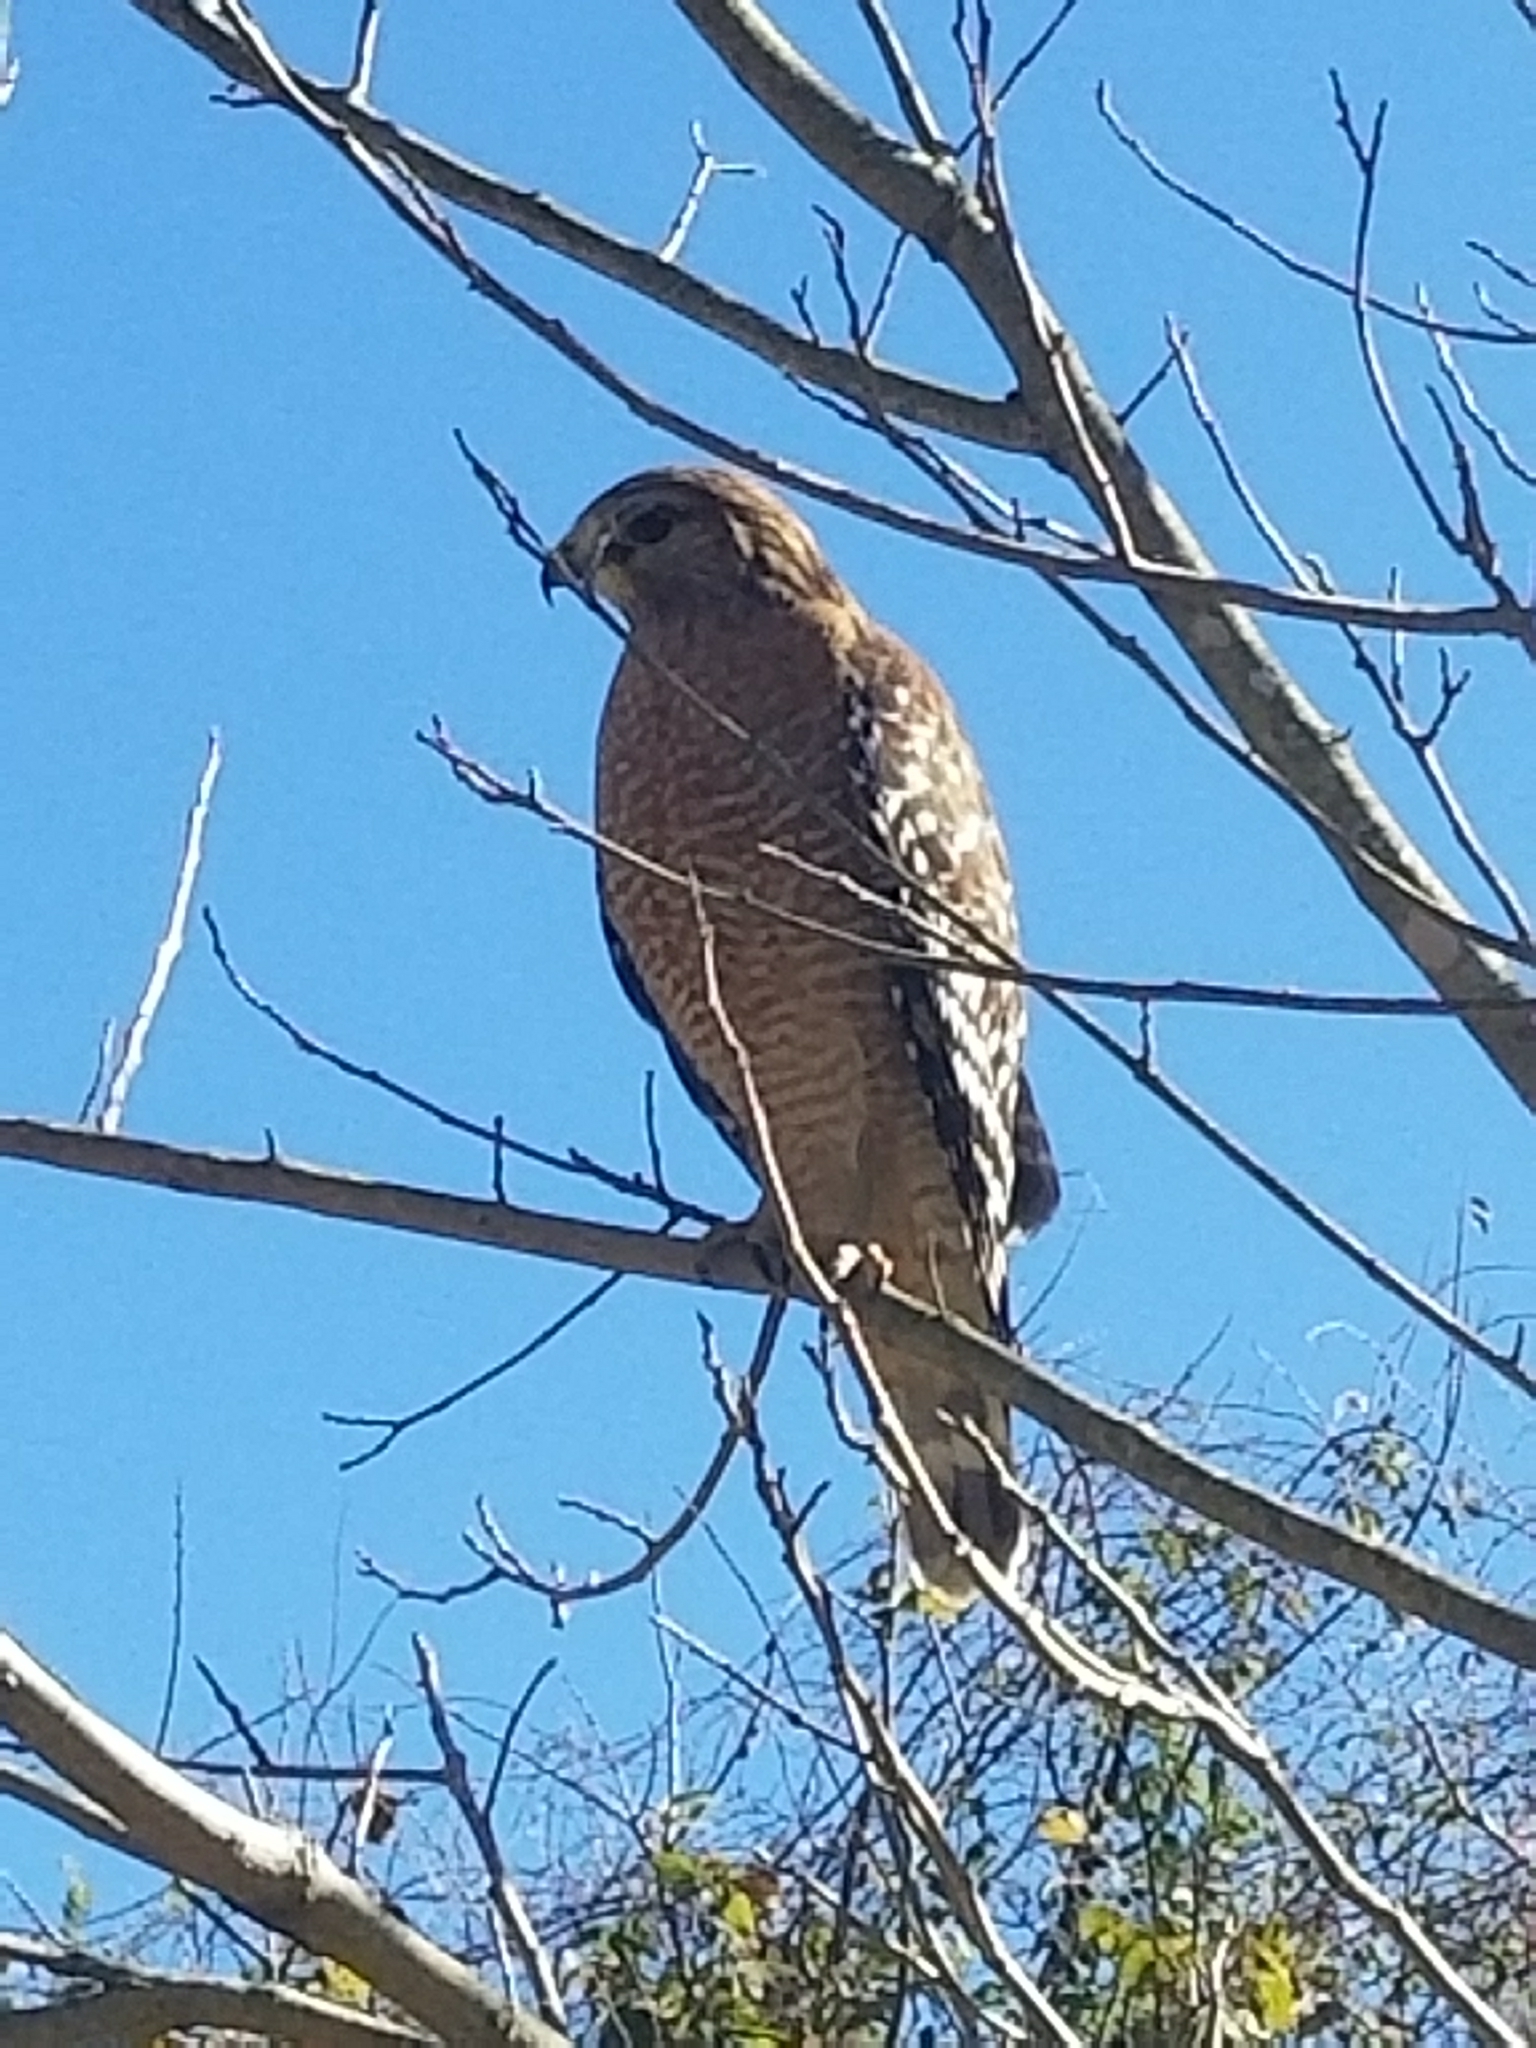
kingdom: Animalia
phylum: Chordata
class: Aves
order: Accipitriformes
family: Accipitridae
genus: Buteo
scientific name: Buteo lineatus
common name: Red-shouldered hawk
